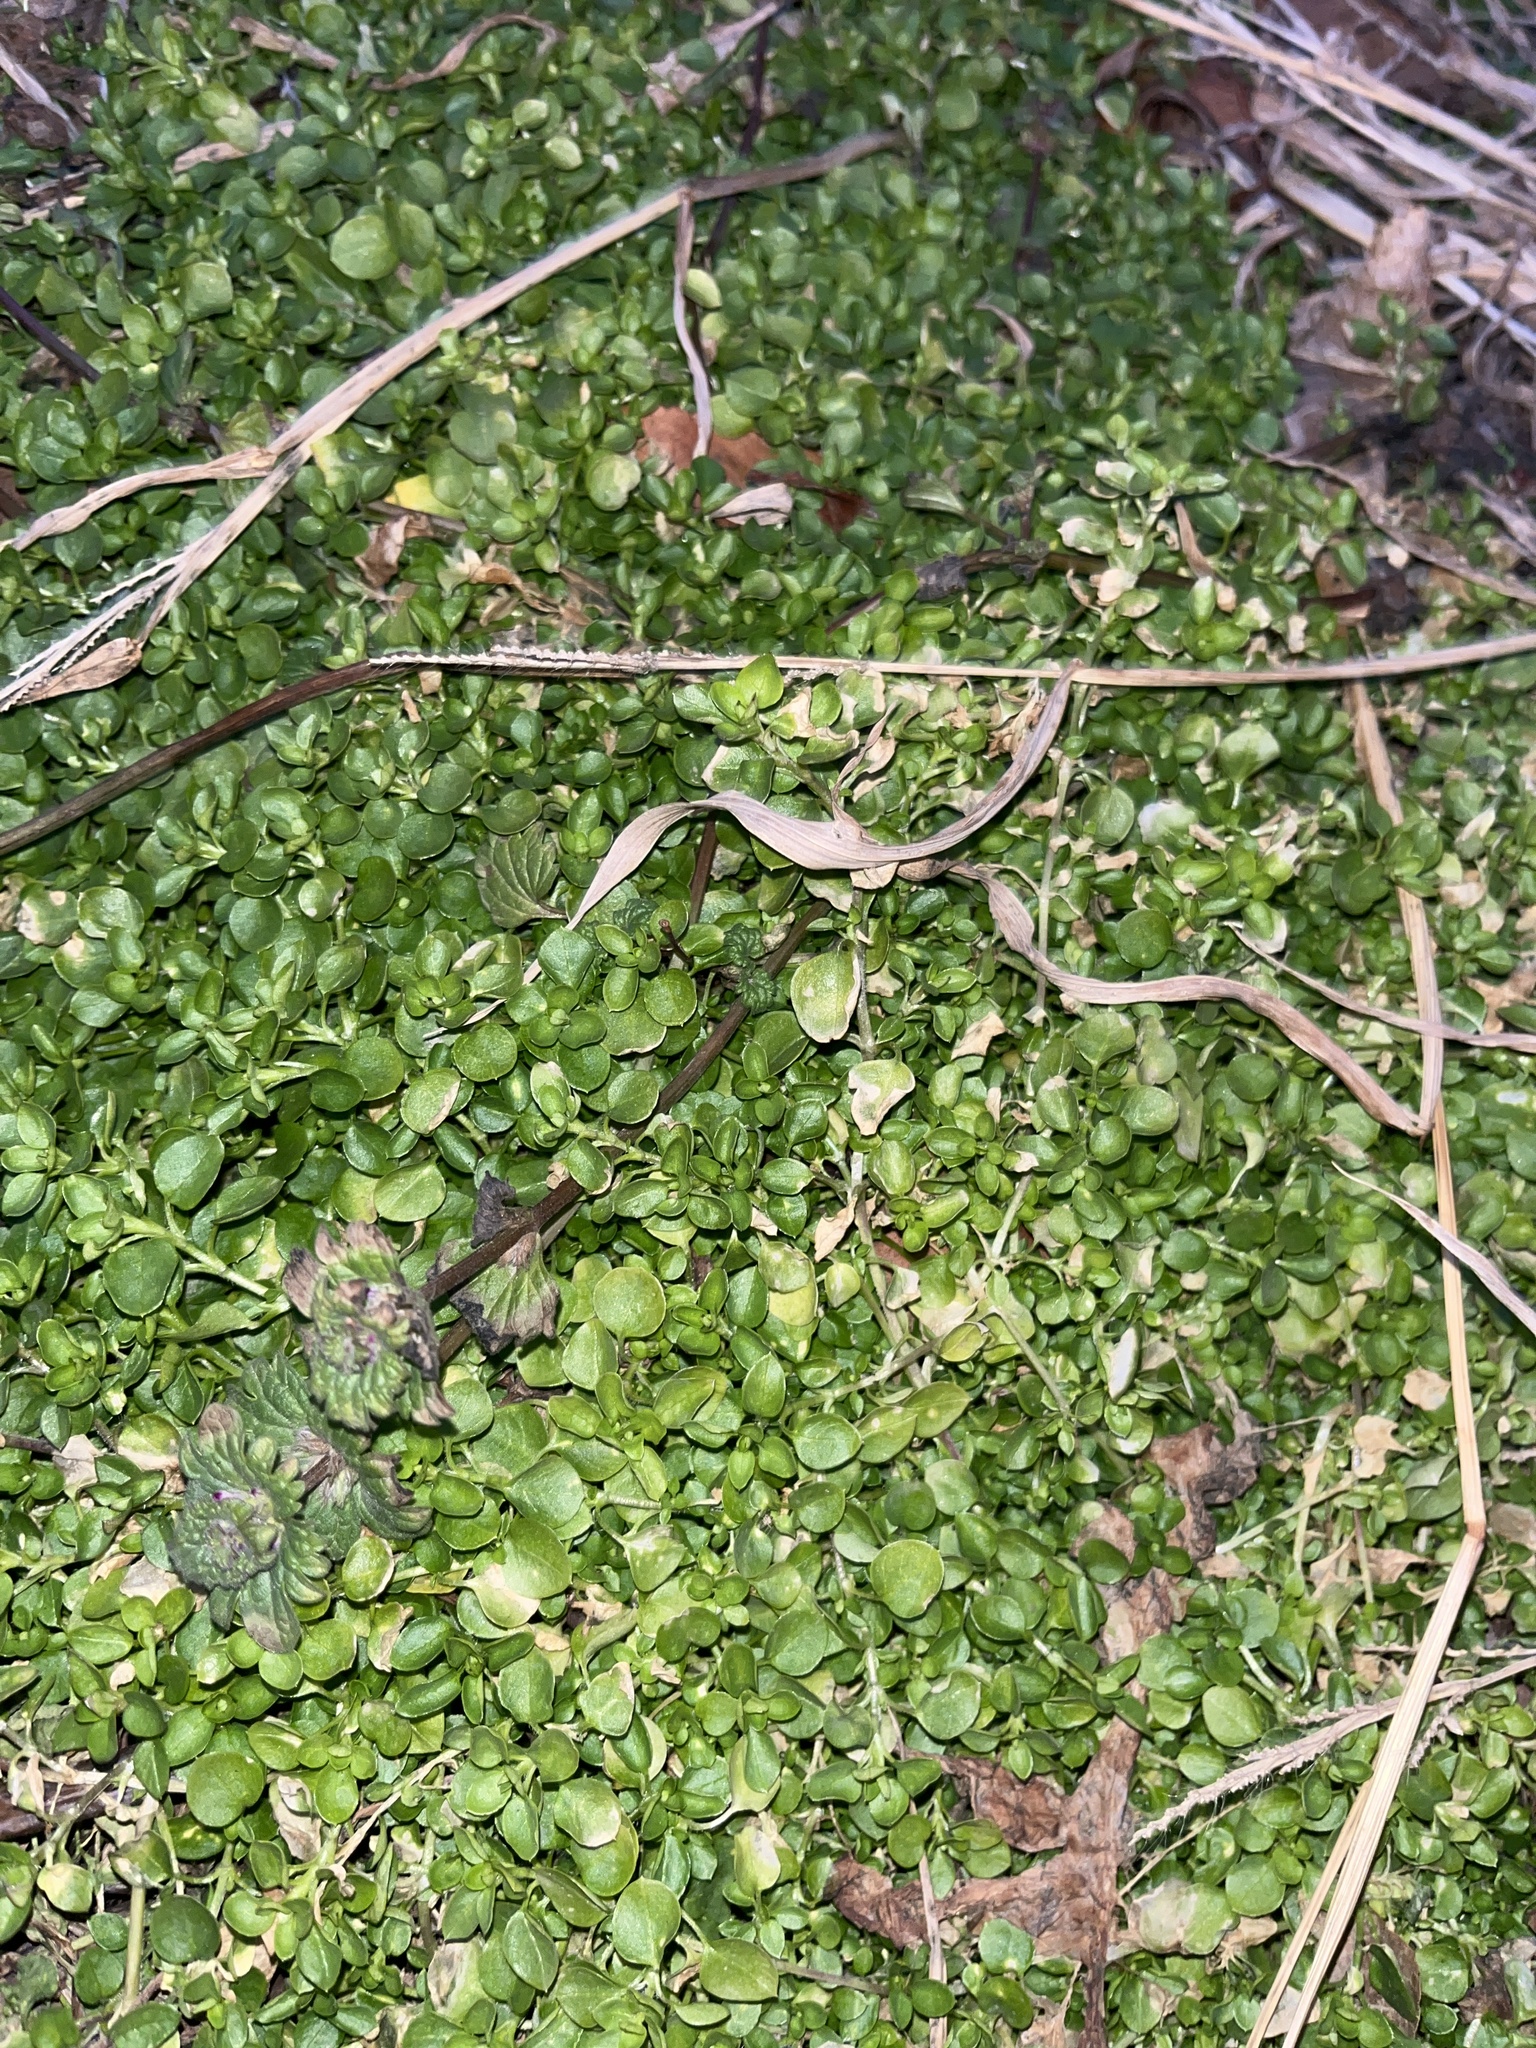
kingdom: Plantae
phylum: Tracheophyta
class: Magnoliopsida
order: Caryophyllales
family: Caryophyllaceae
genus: Stellaria
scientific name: Stellaria media
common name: Common chickweed
